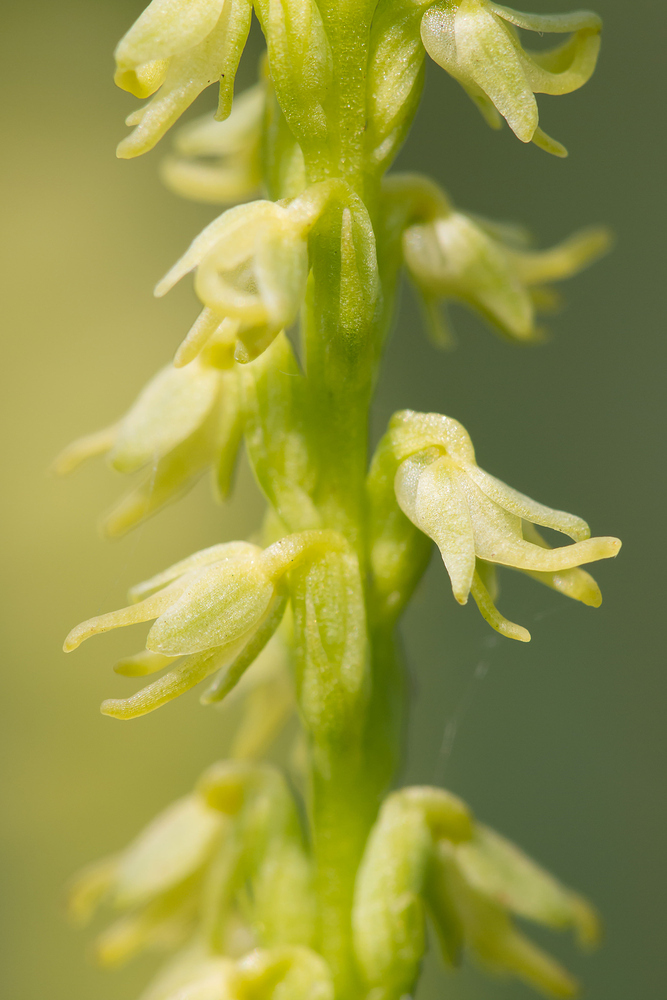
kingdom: Plantae
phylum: Tracheophyta
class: Liliopsida
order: Asparagales
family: Orchidaceae
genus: Herminium
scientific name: Herminium monorchis
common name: Musk orchid
